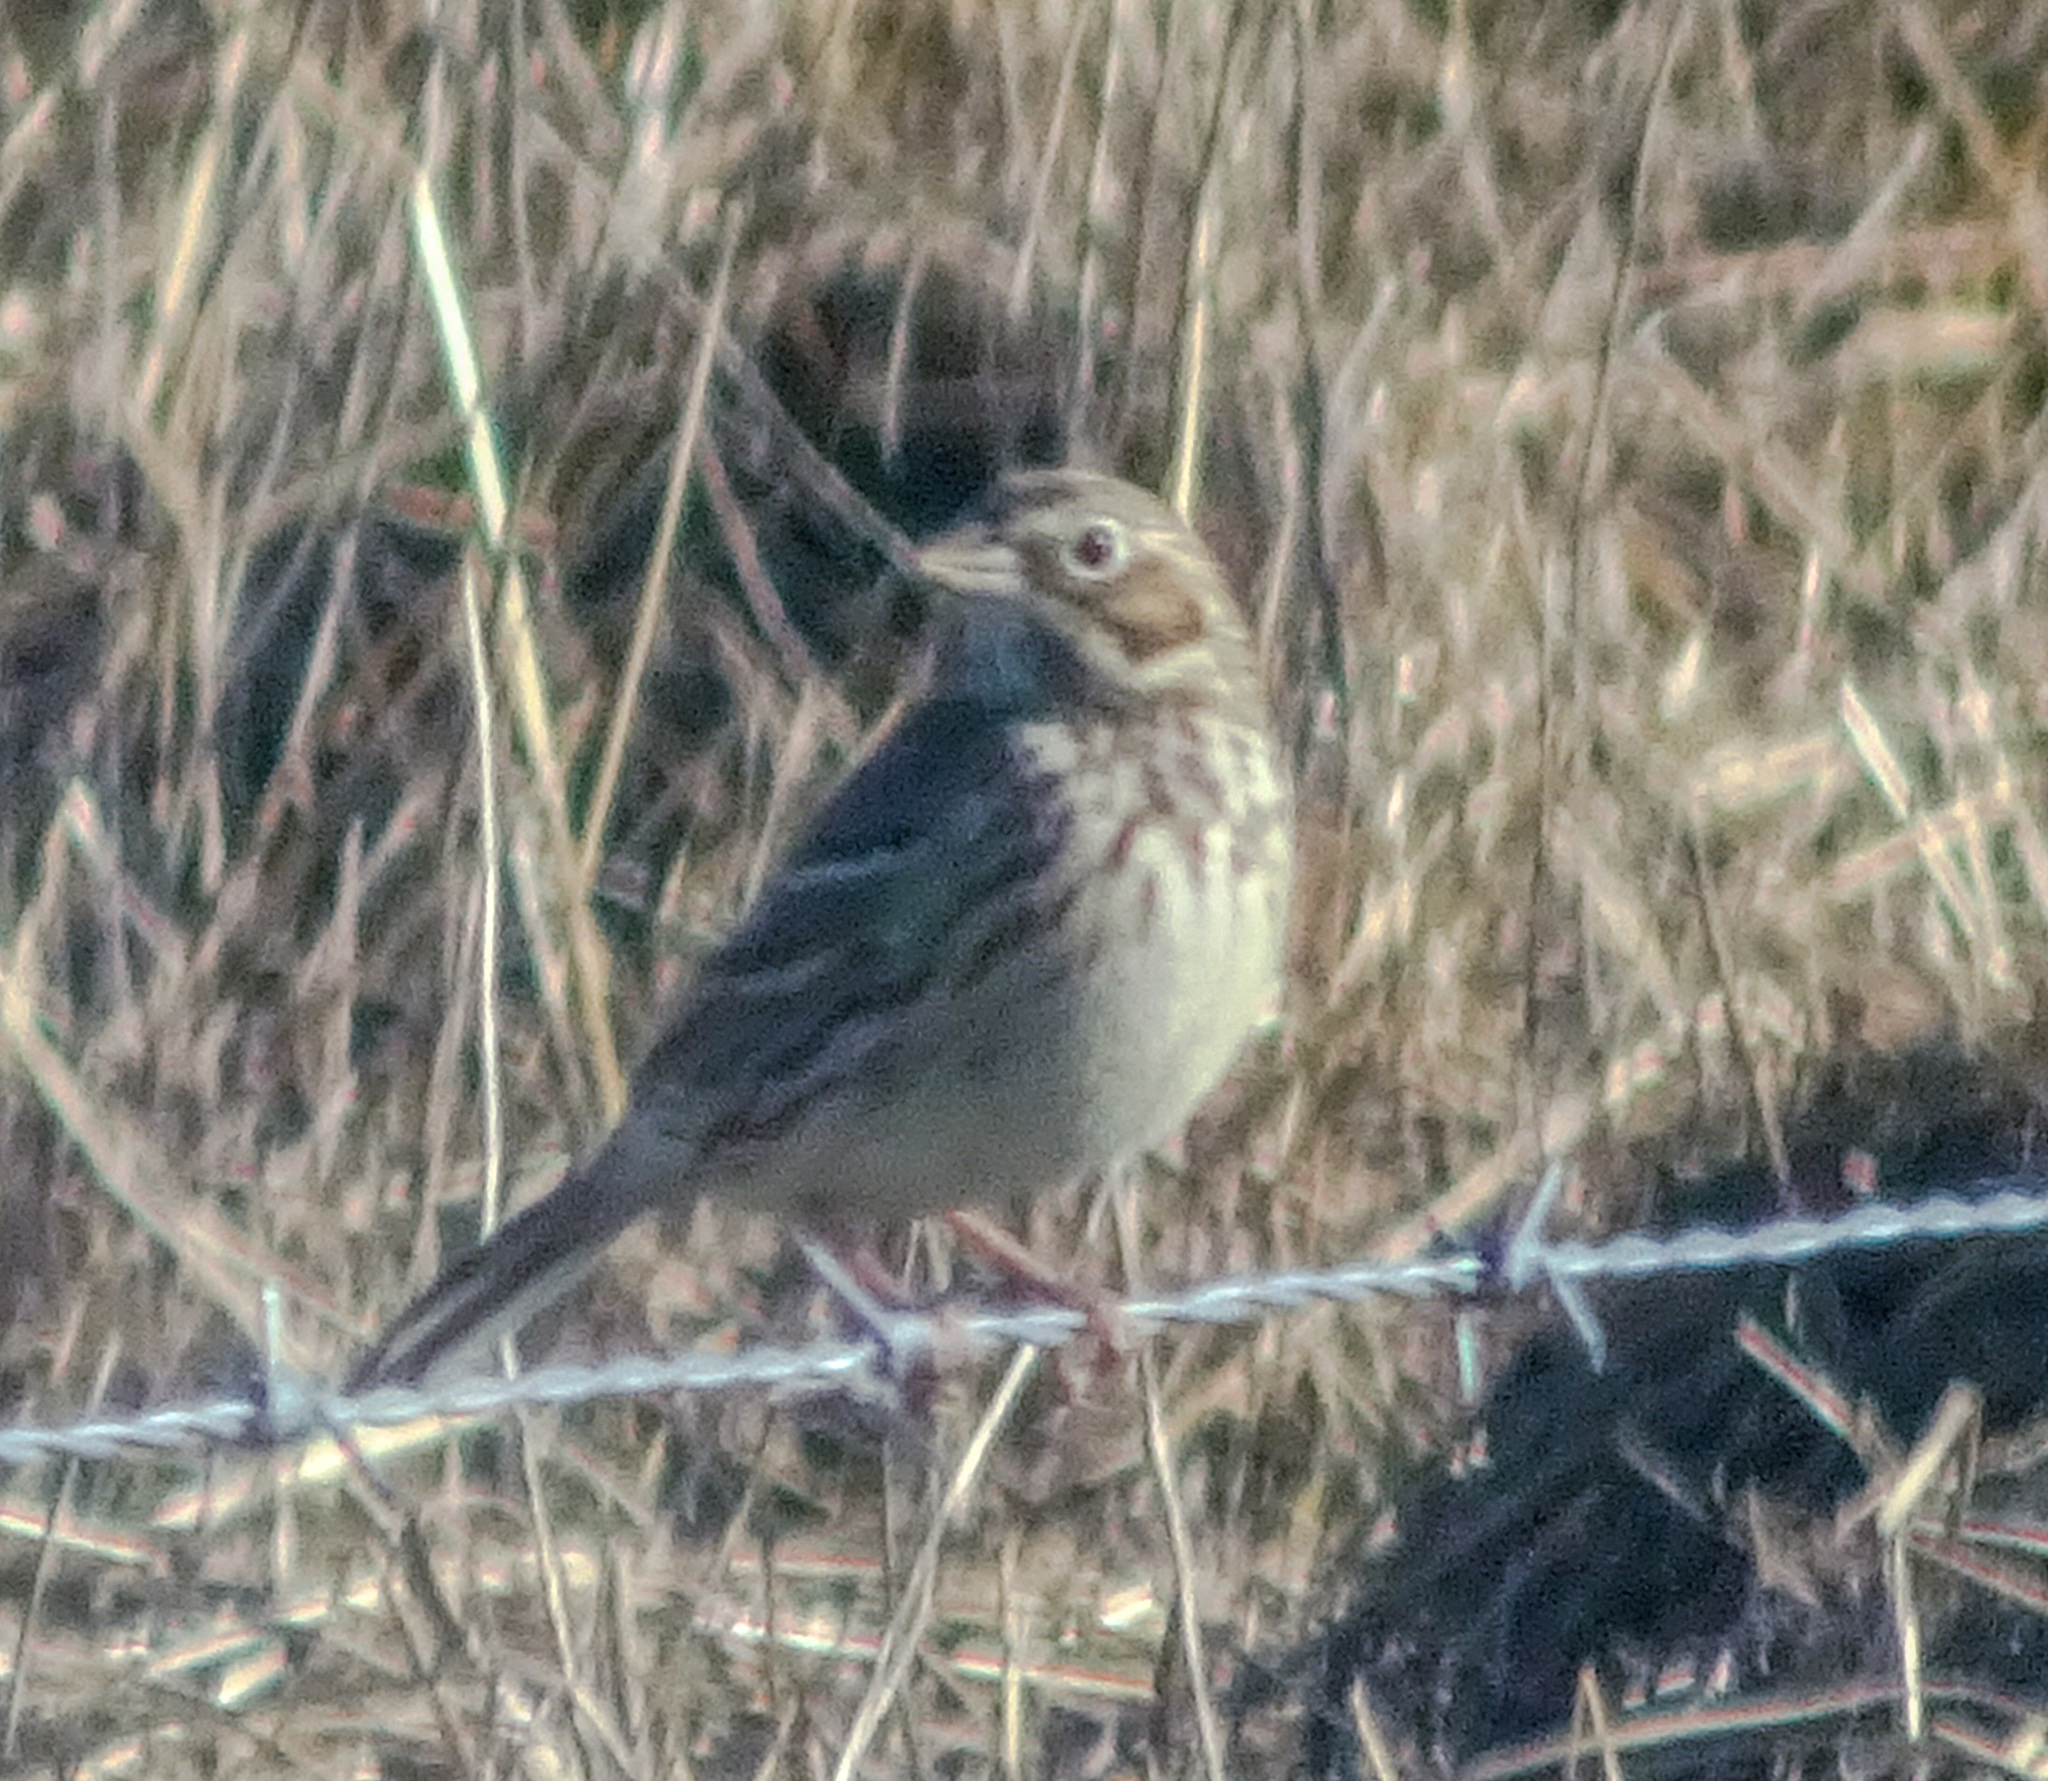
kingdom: Animalia
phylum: Chordata
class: Aves
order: Passeriformes
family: Passerellidae
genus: Pooecetes
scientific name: Pooecetes gramineus
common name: Vesper sparrow
